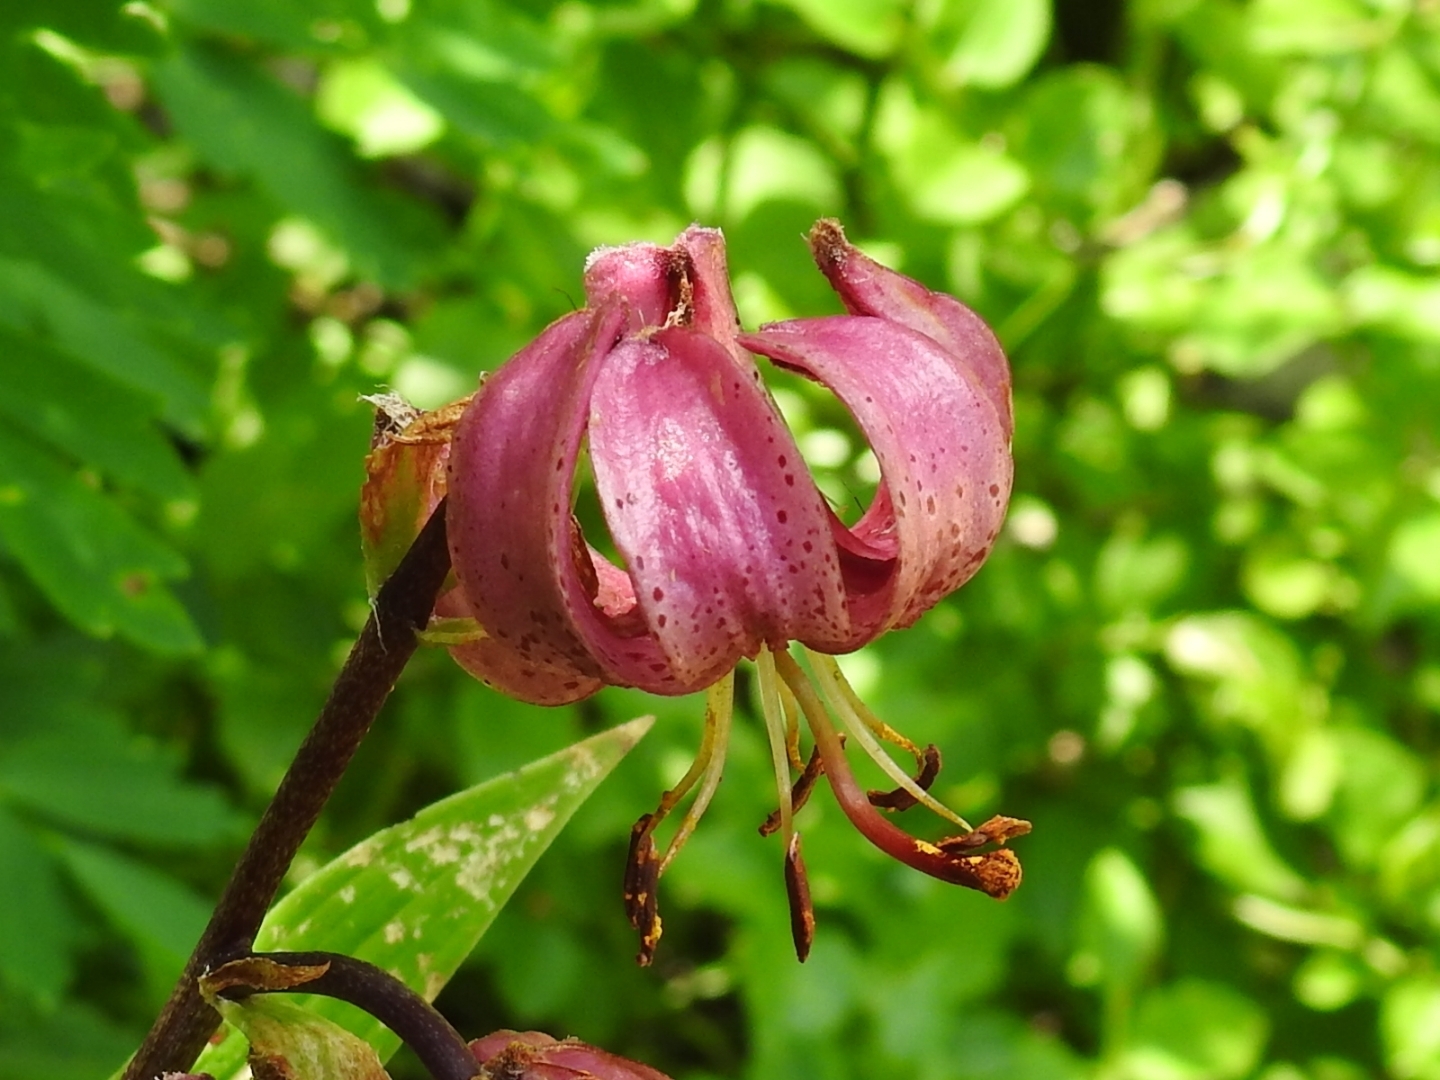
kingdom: Plantae
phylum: Tracheophyta
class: Liliopsida
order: Liliales
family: Liliaceae
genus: Lilium
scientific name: Lilium martagon
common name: Martagon lily
